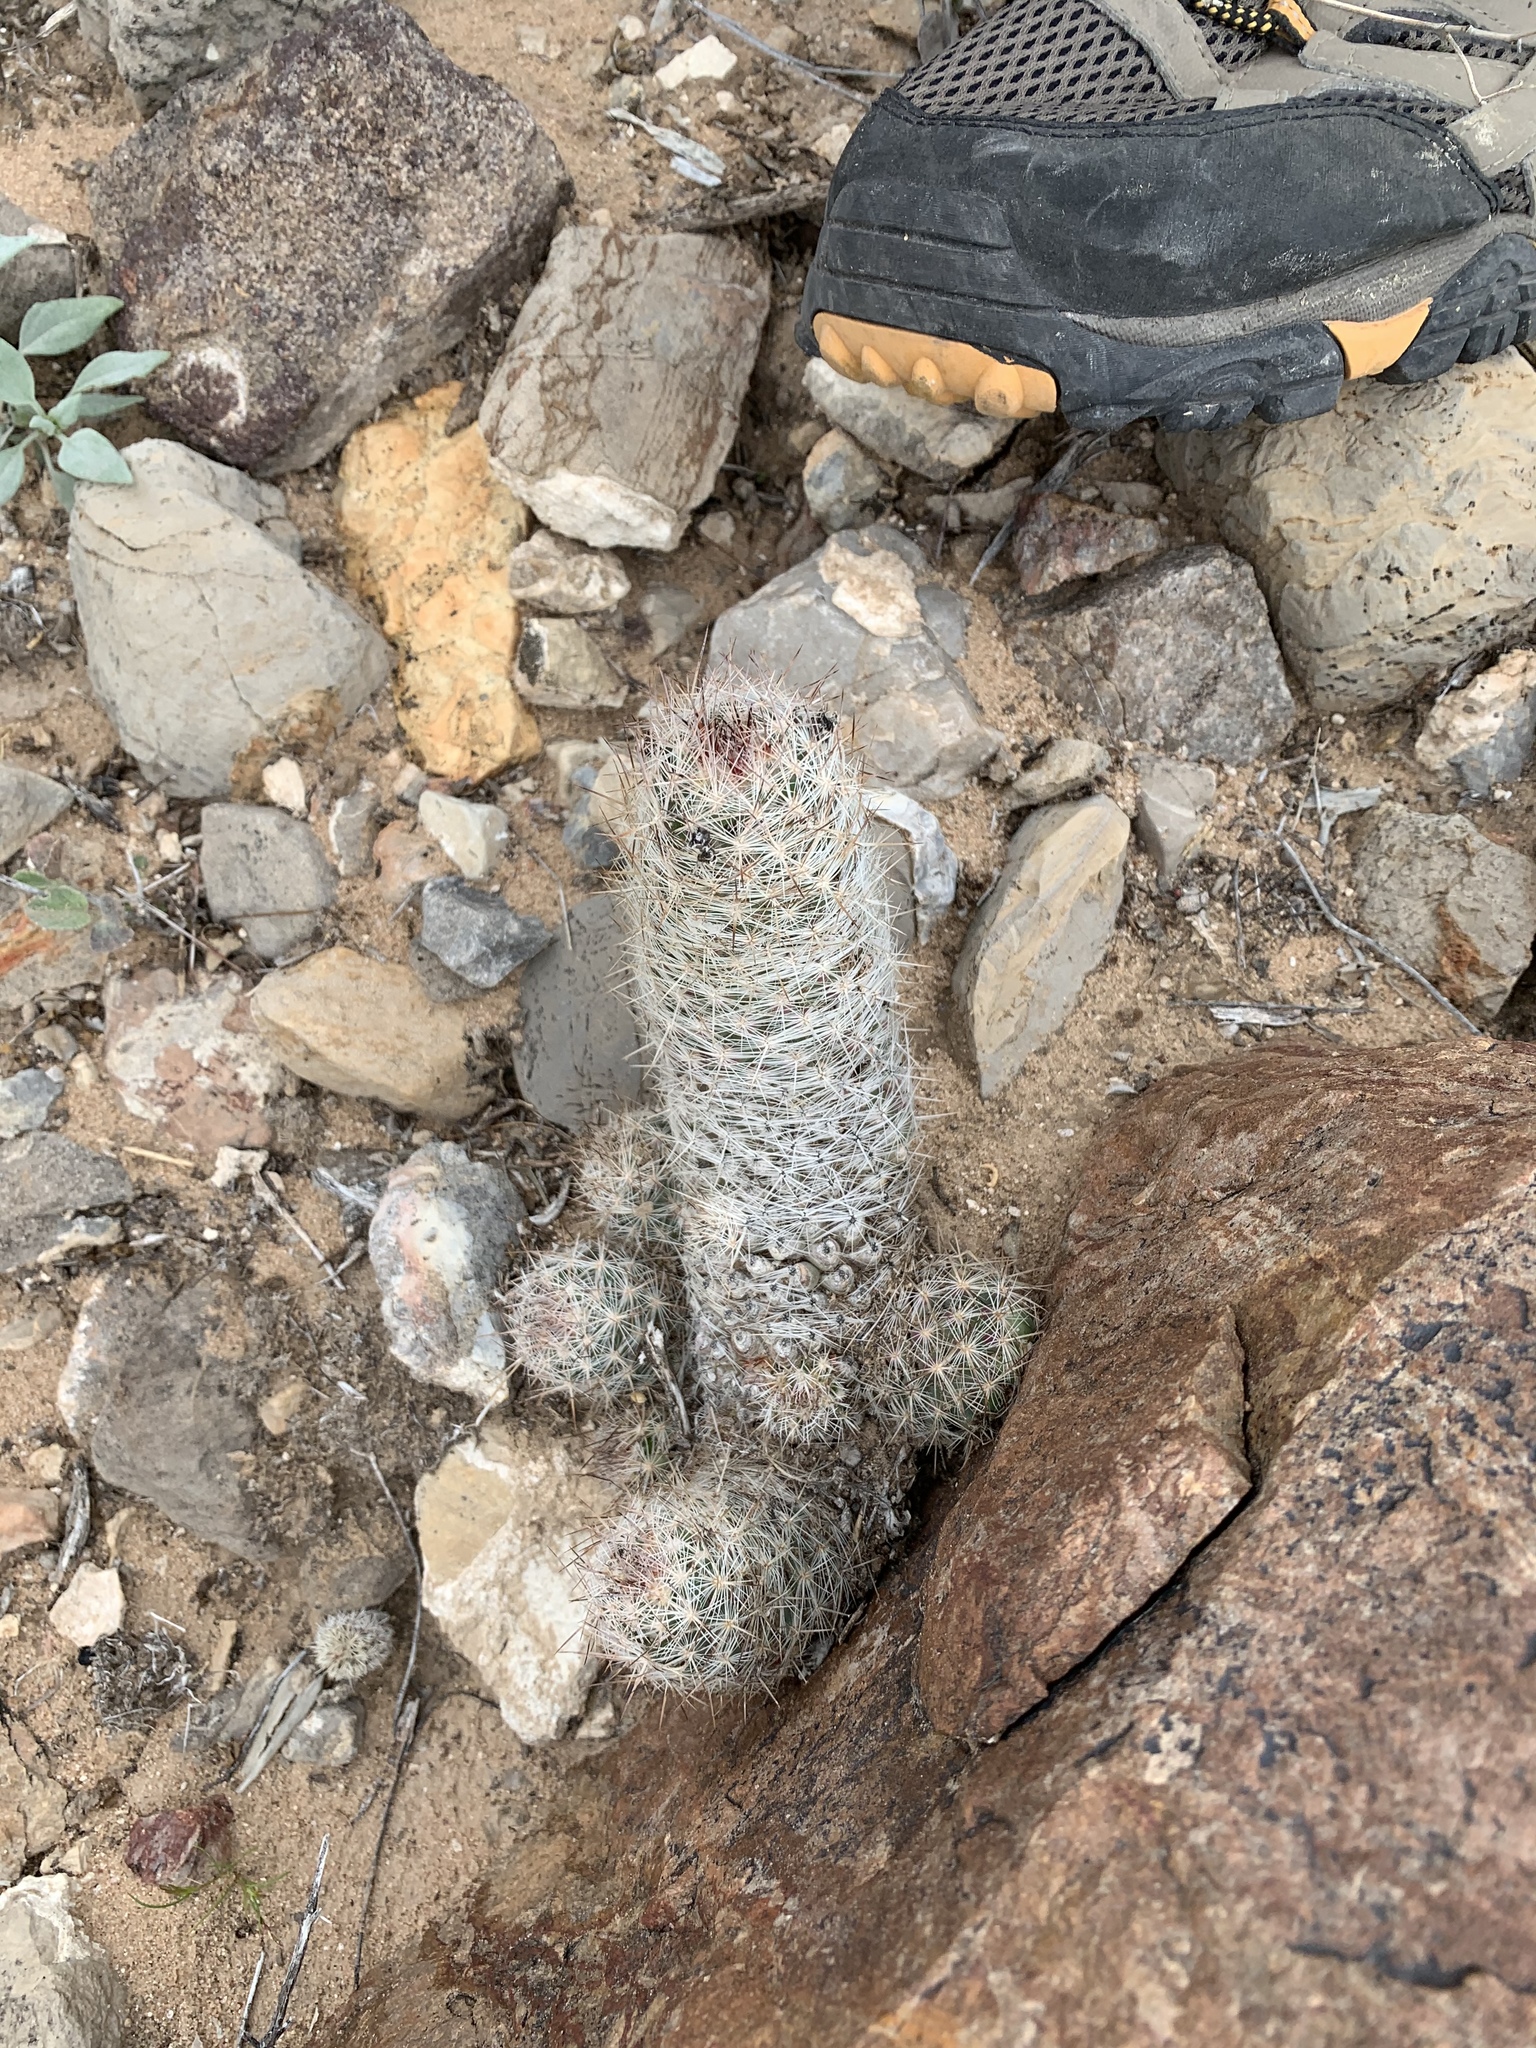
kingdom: Plantae
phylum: Tracheophyta
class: Magnoliopsida
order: Caryophyllales
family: Cactaceae
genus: Pelecyphora
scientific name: Pelecyphora tuberculosa
